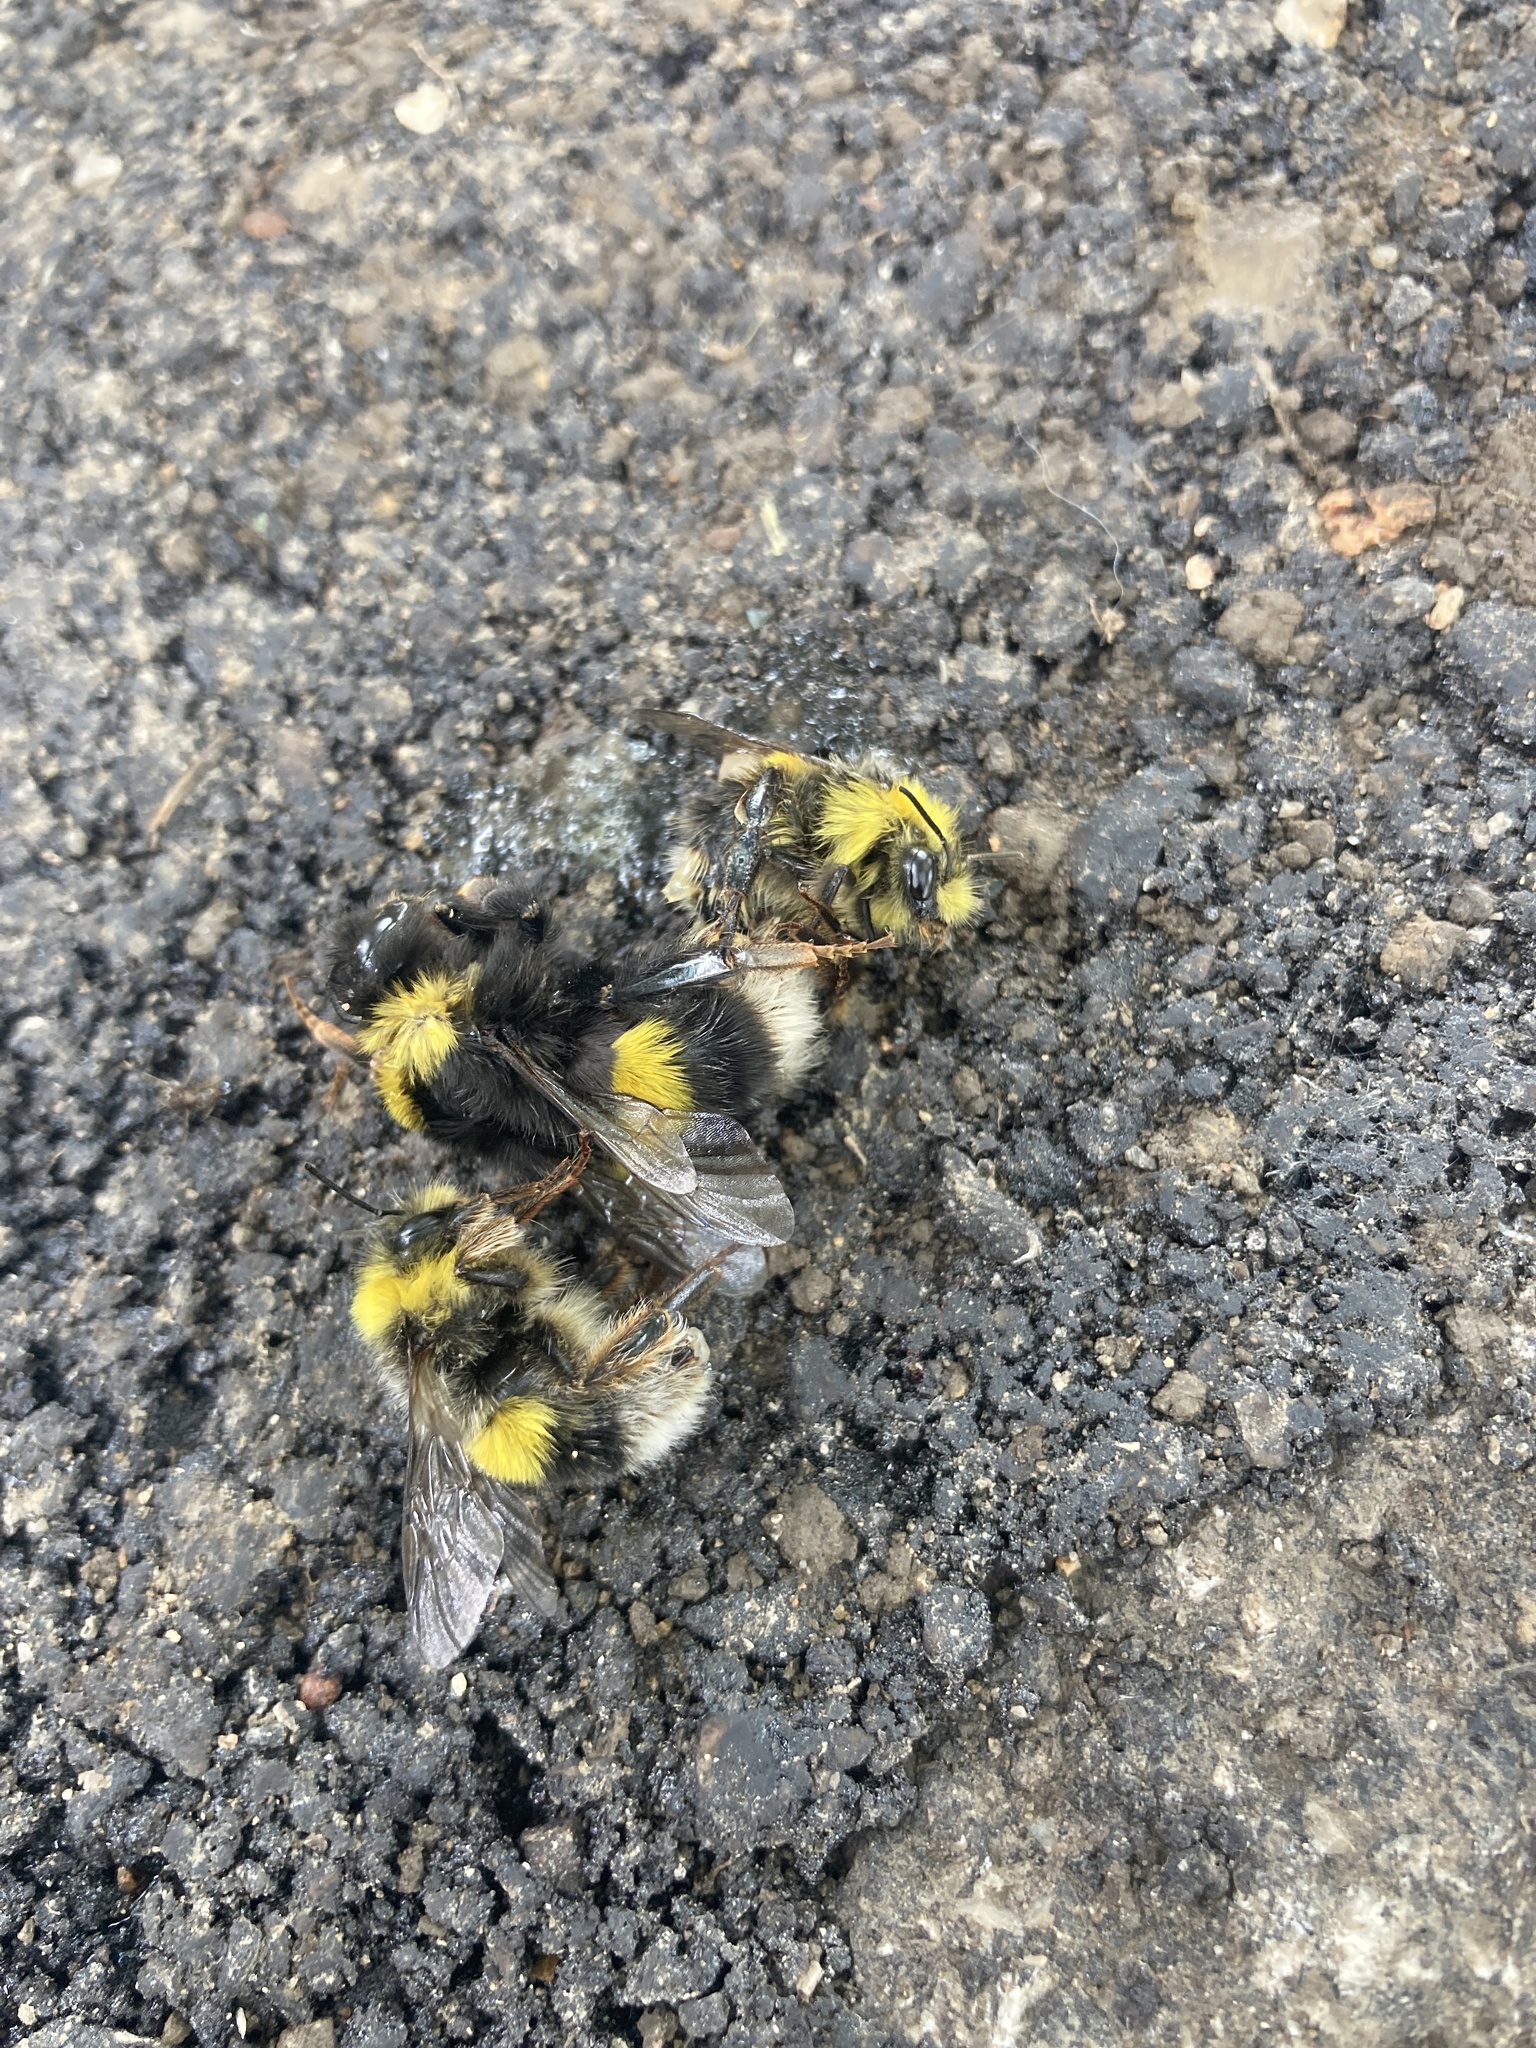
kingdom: Animalia
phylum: Arthropoda
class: Insecta
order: Hymenoptera
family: Apidae
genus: Bombus
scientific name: Bombus terrestris
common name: Buff-tailed bumblebee
